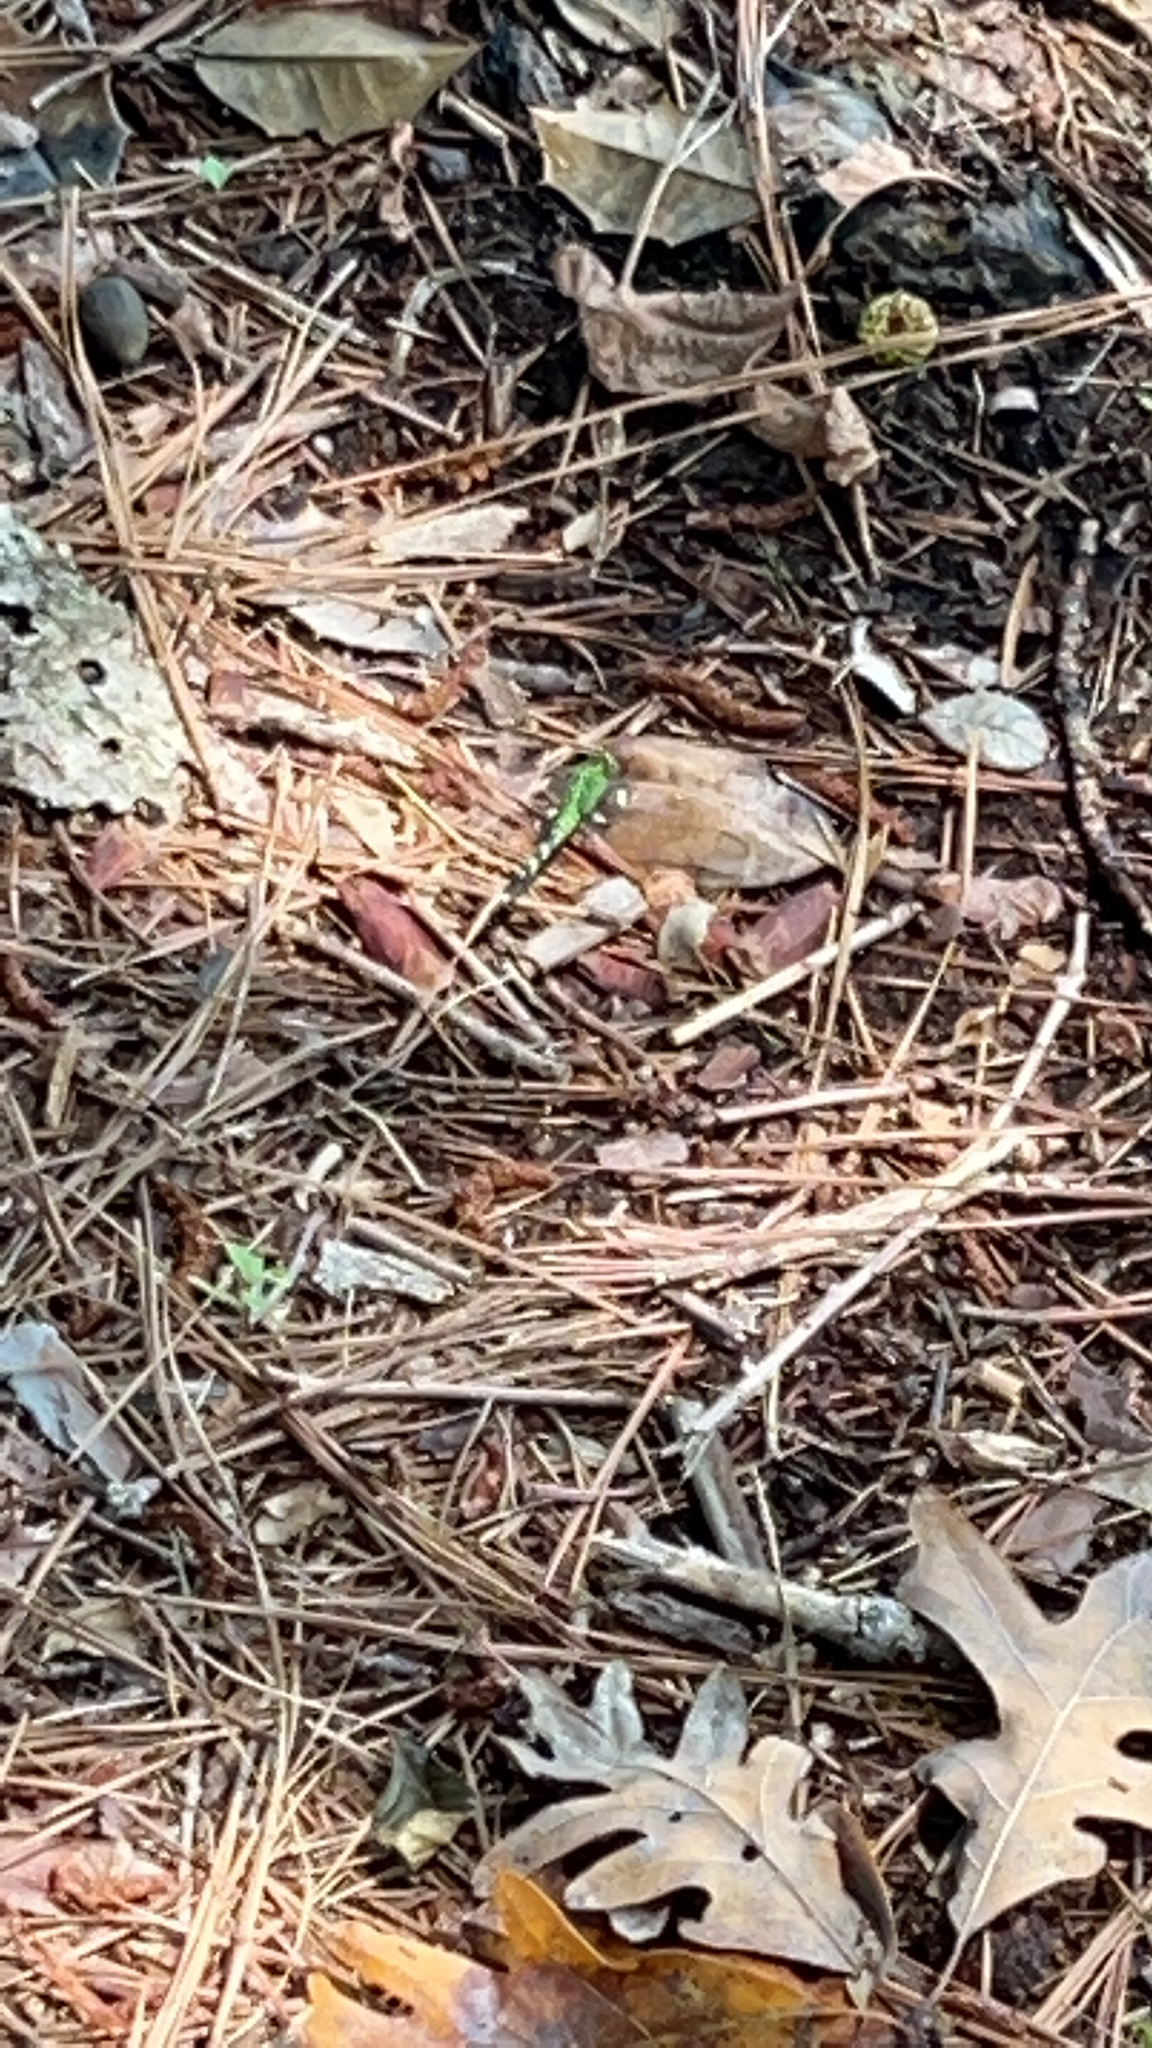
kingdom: Animalia
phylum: Arthropoda
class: Insecta
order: Odonata
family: Libellulidae
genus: Erythemis
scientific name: Erythemis simplicicollis
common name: Eastern pondhawk
